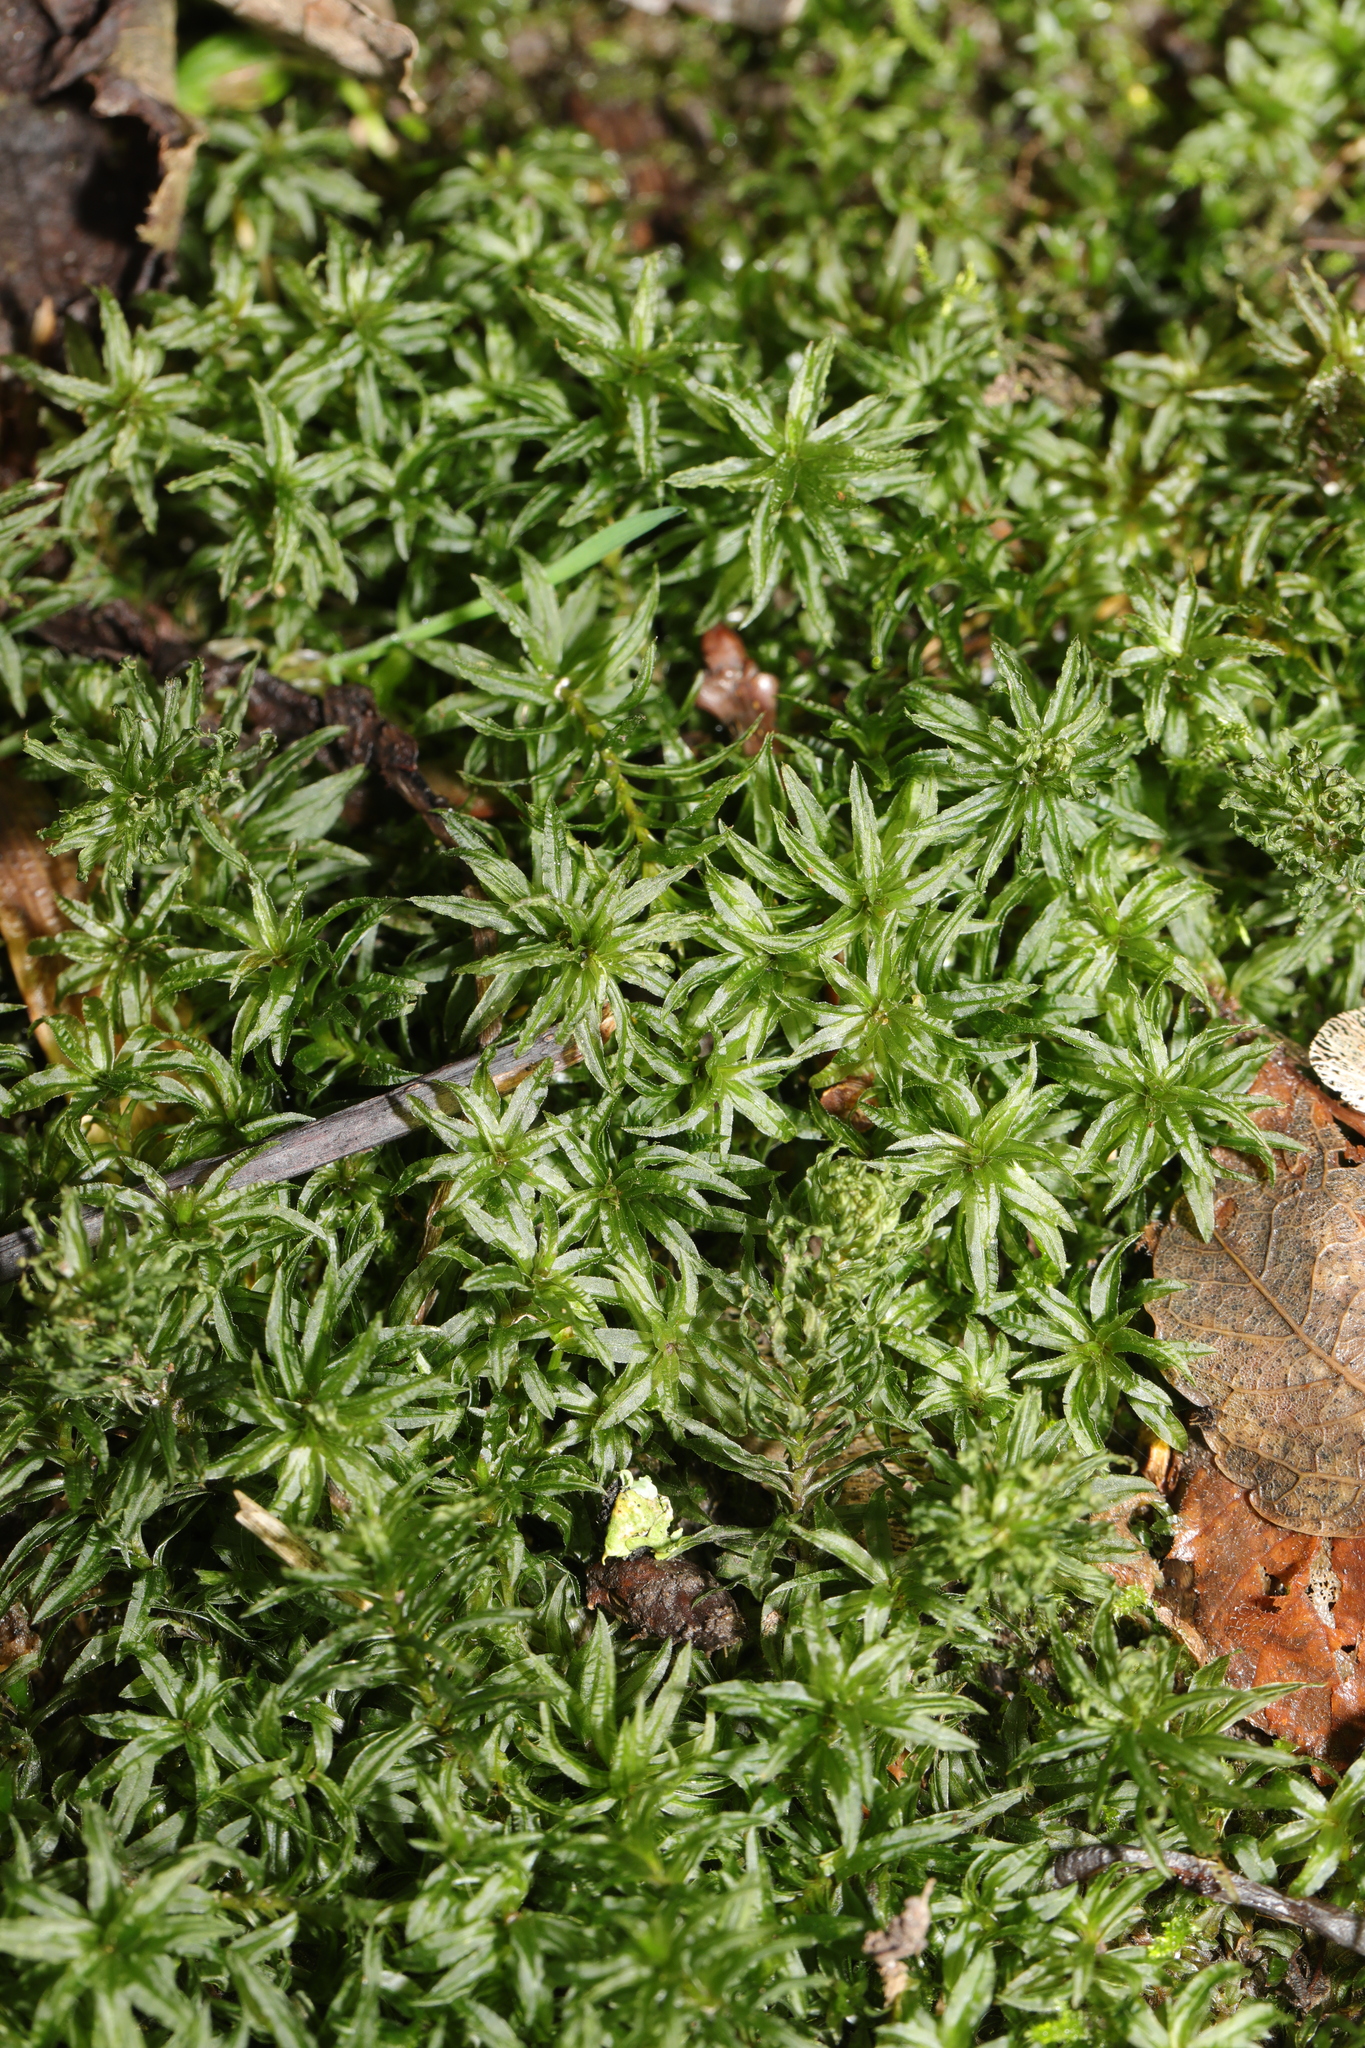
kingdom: Plantae
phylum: Bryophyta
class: Polytrichopsida
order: Polytrichales
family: Polytrichaceae
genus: Atrichum
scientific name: Atrichum undulatum
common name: Common smoothcap
